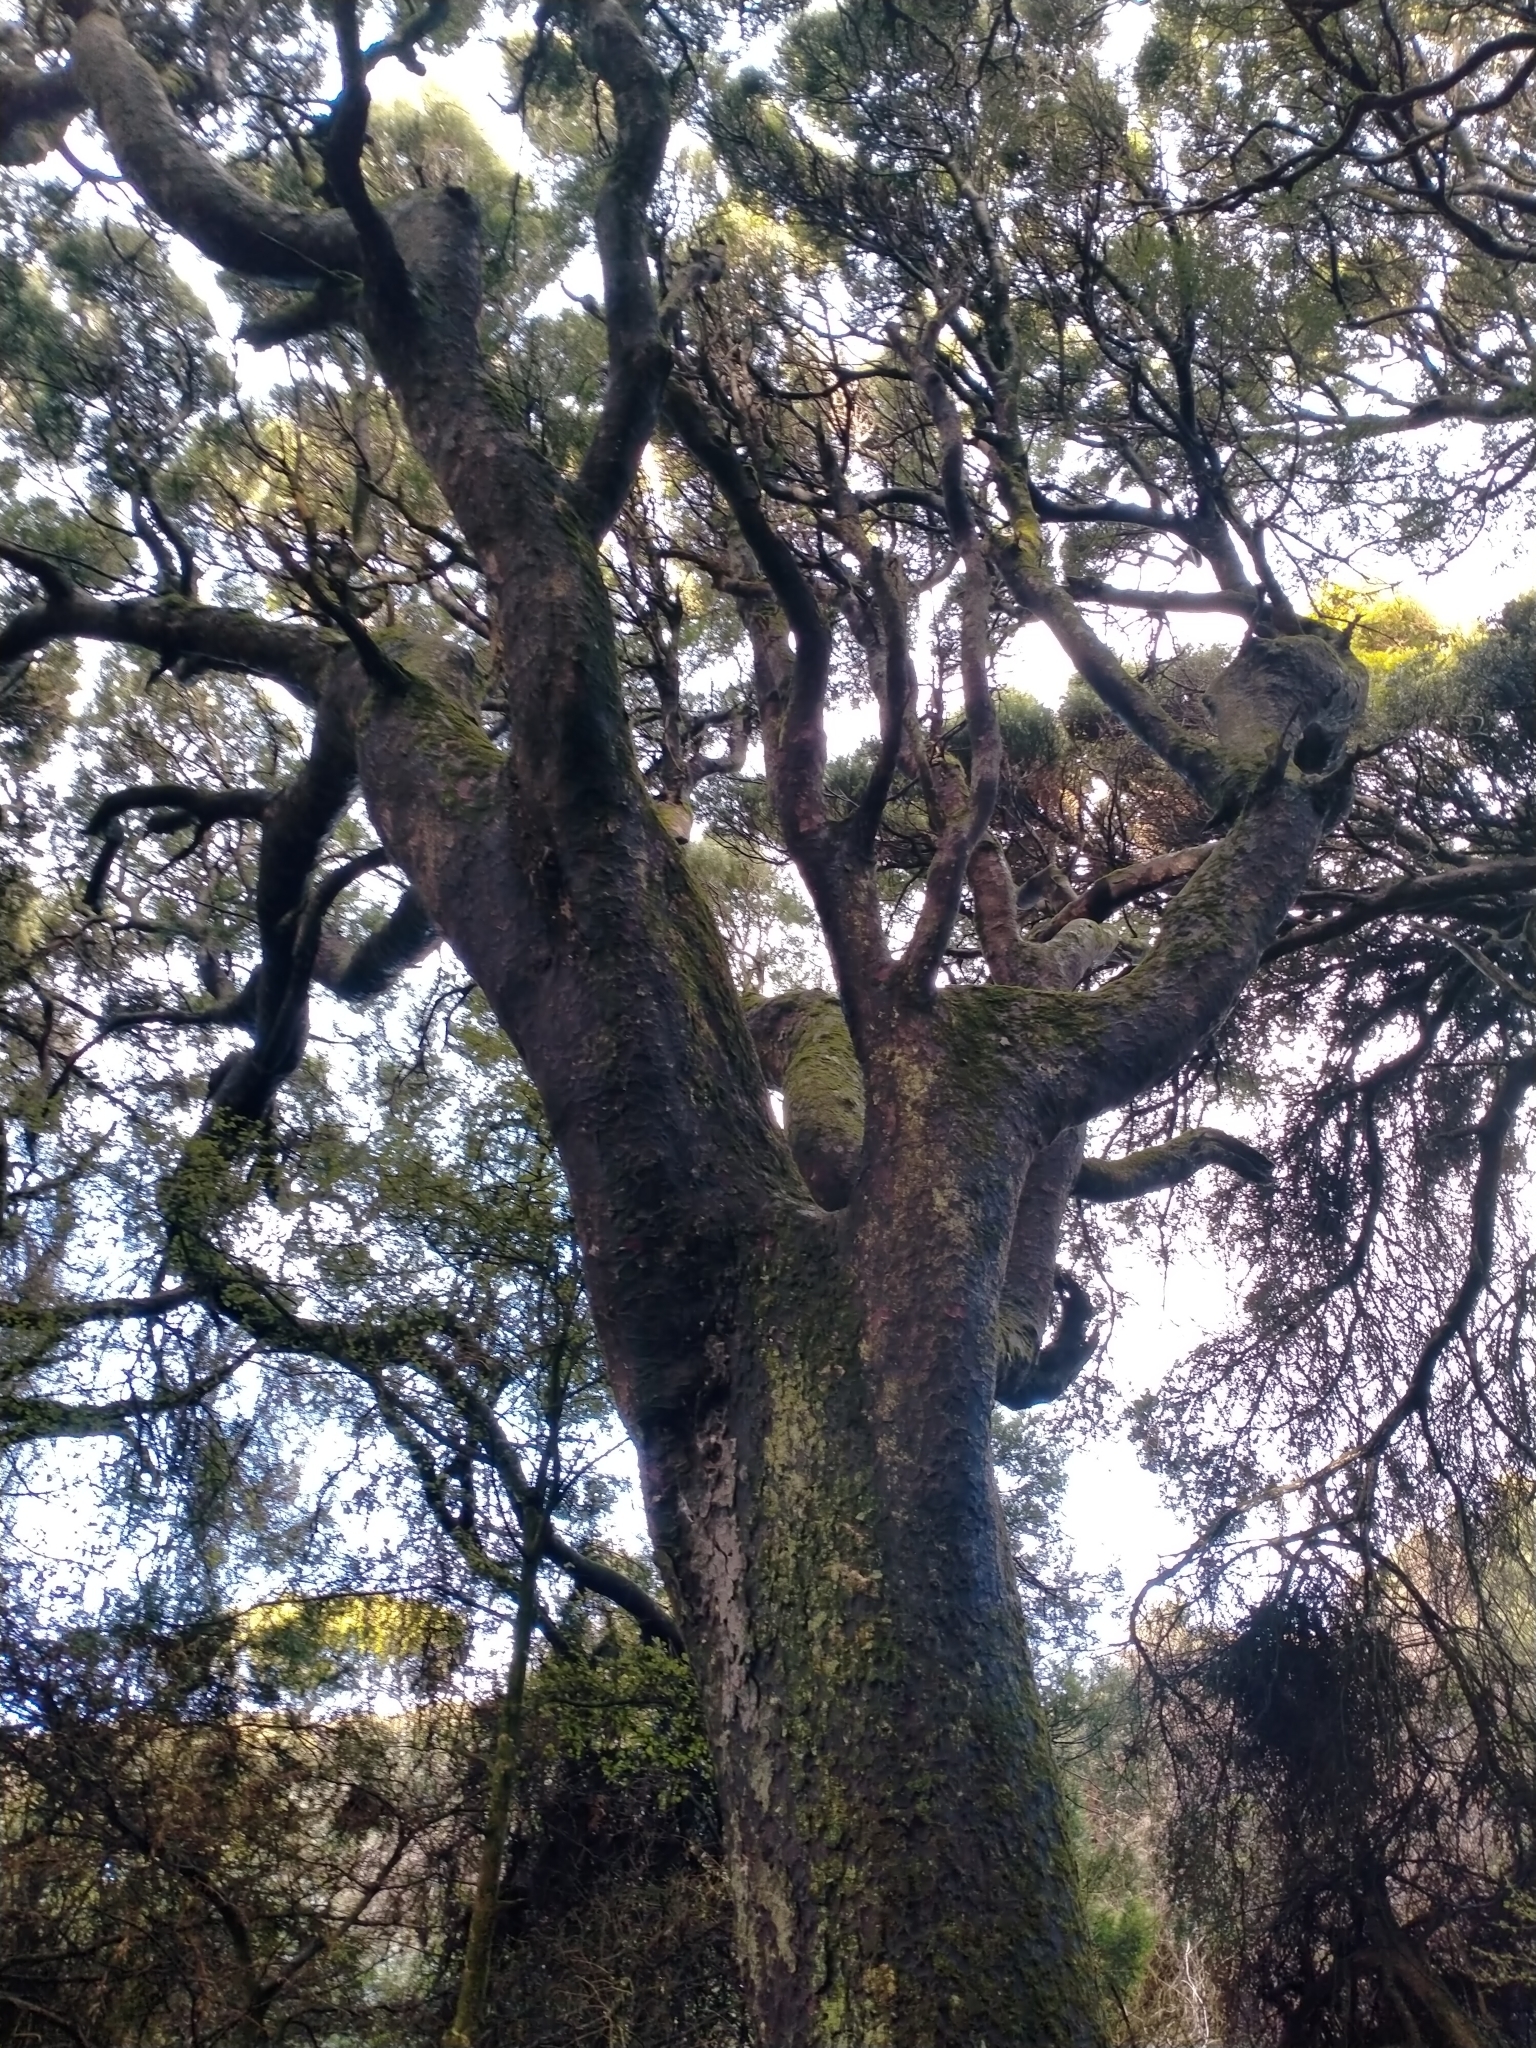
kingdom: Plantae
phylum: Tracheophyta
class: Pinopsida
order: Pinales
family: Podocarpaceae
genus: Prumnopitys
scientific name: Prumnopitys taxifolia
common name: Matai
